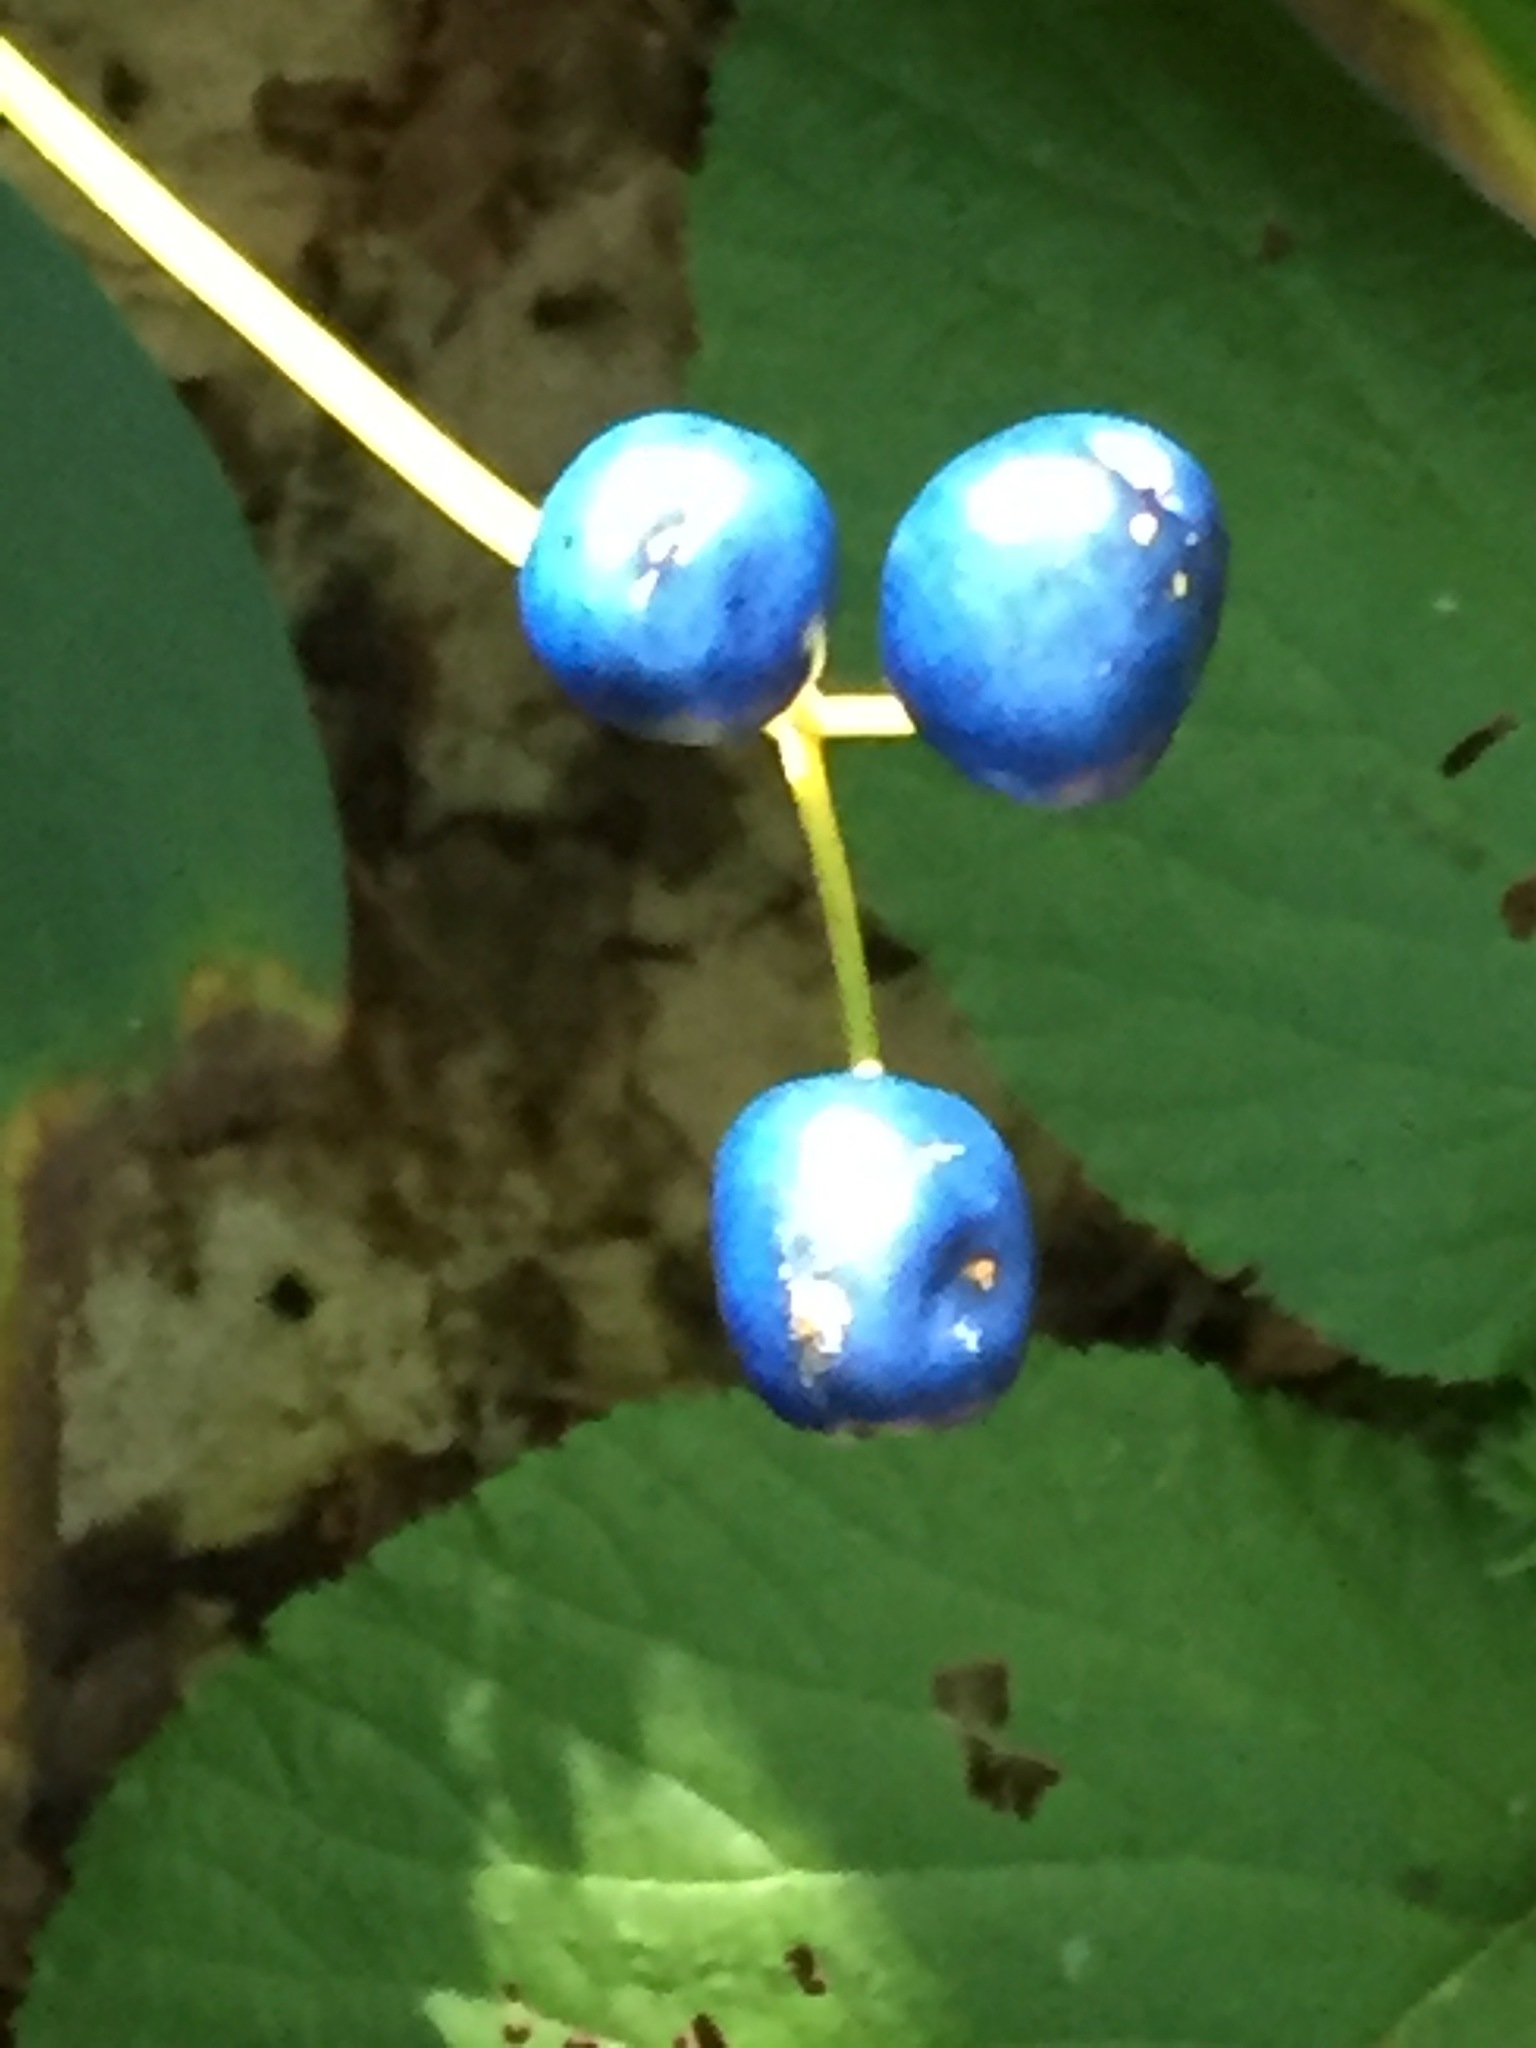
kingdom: Plantae
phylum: Tracheophyta
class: Liliopsida
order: Liliales
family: Liliaceae
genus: Clintonia
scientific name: Clintonia borealis
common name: Yellow clintonia
